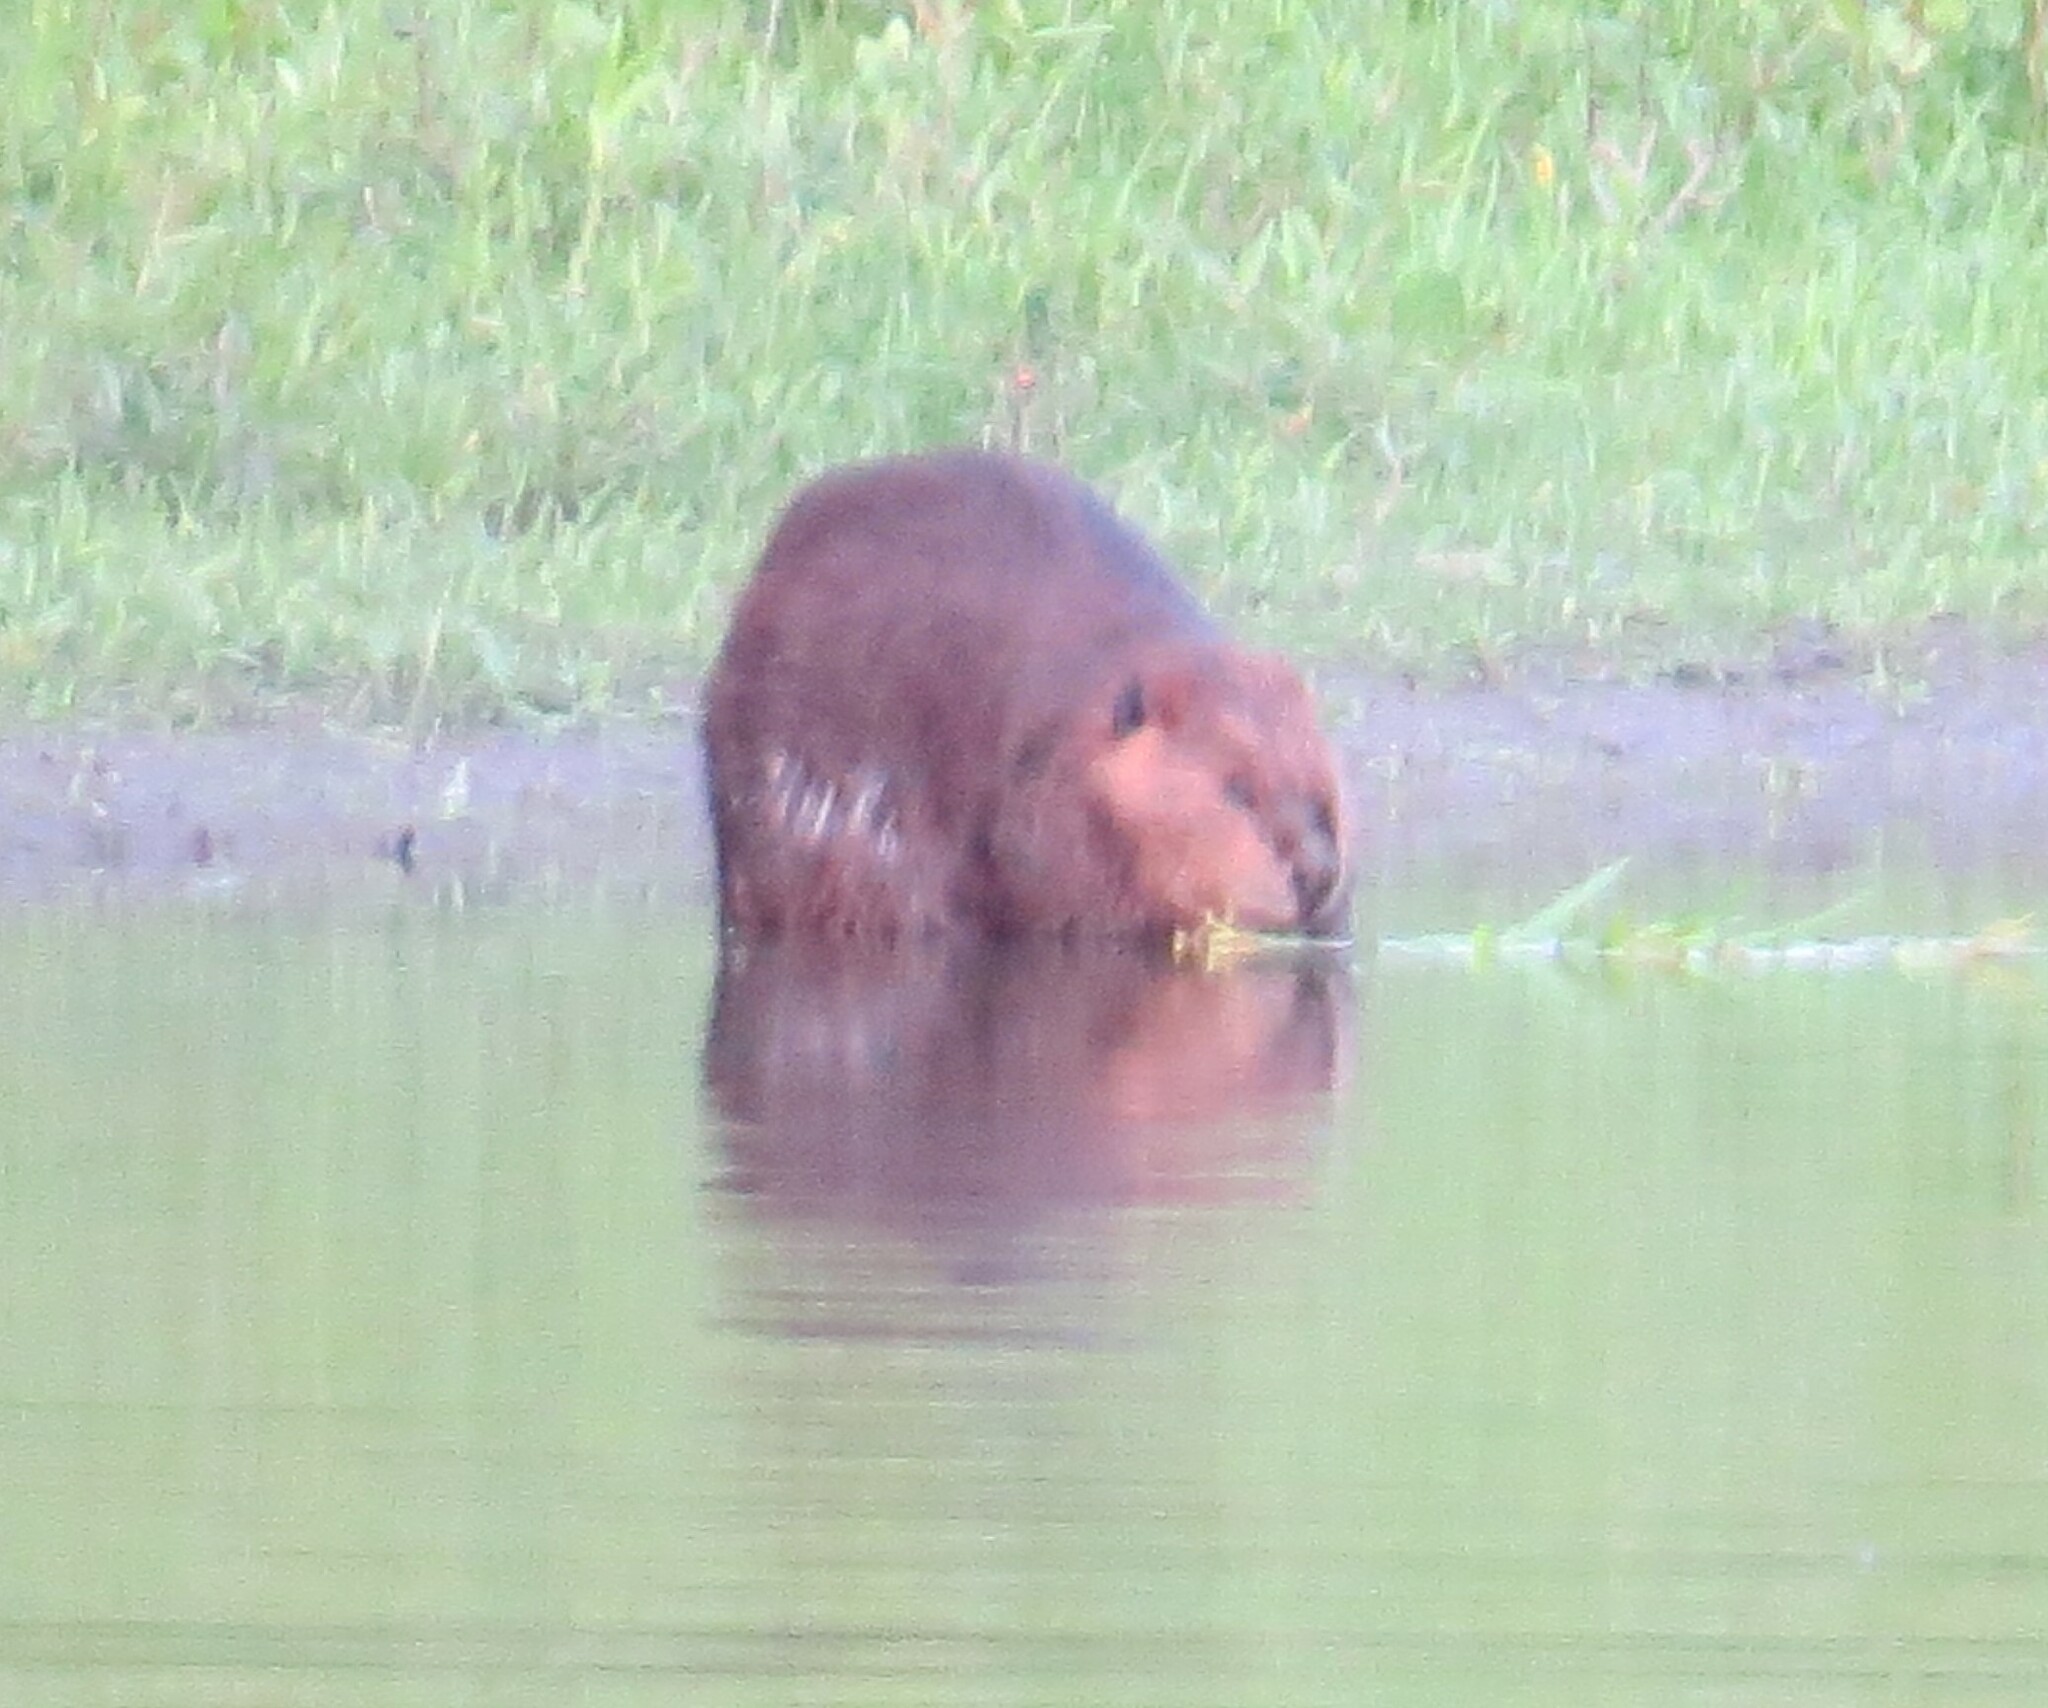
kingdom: Animalia
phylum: Chordata
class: Mammalia
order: Rodentia
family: Castoridae
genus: Castor
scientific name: Castor canadensis
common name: American beaver
